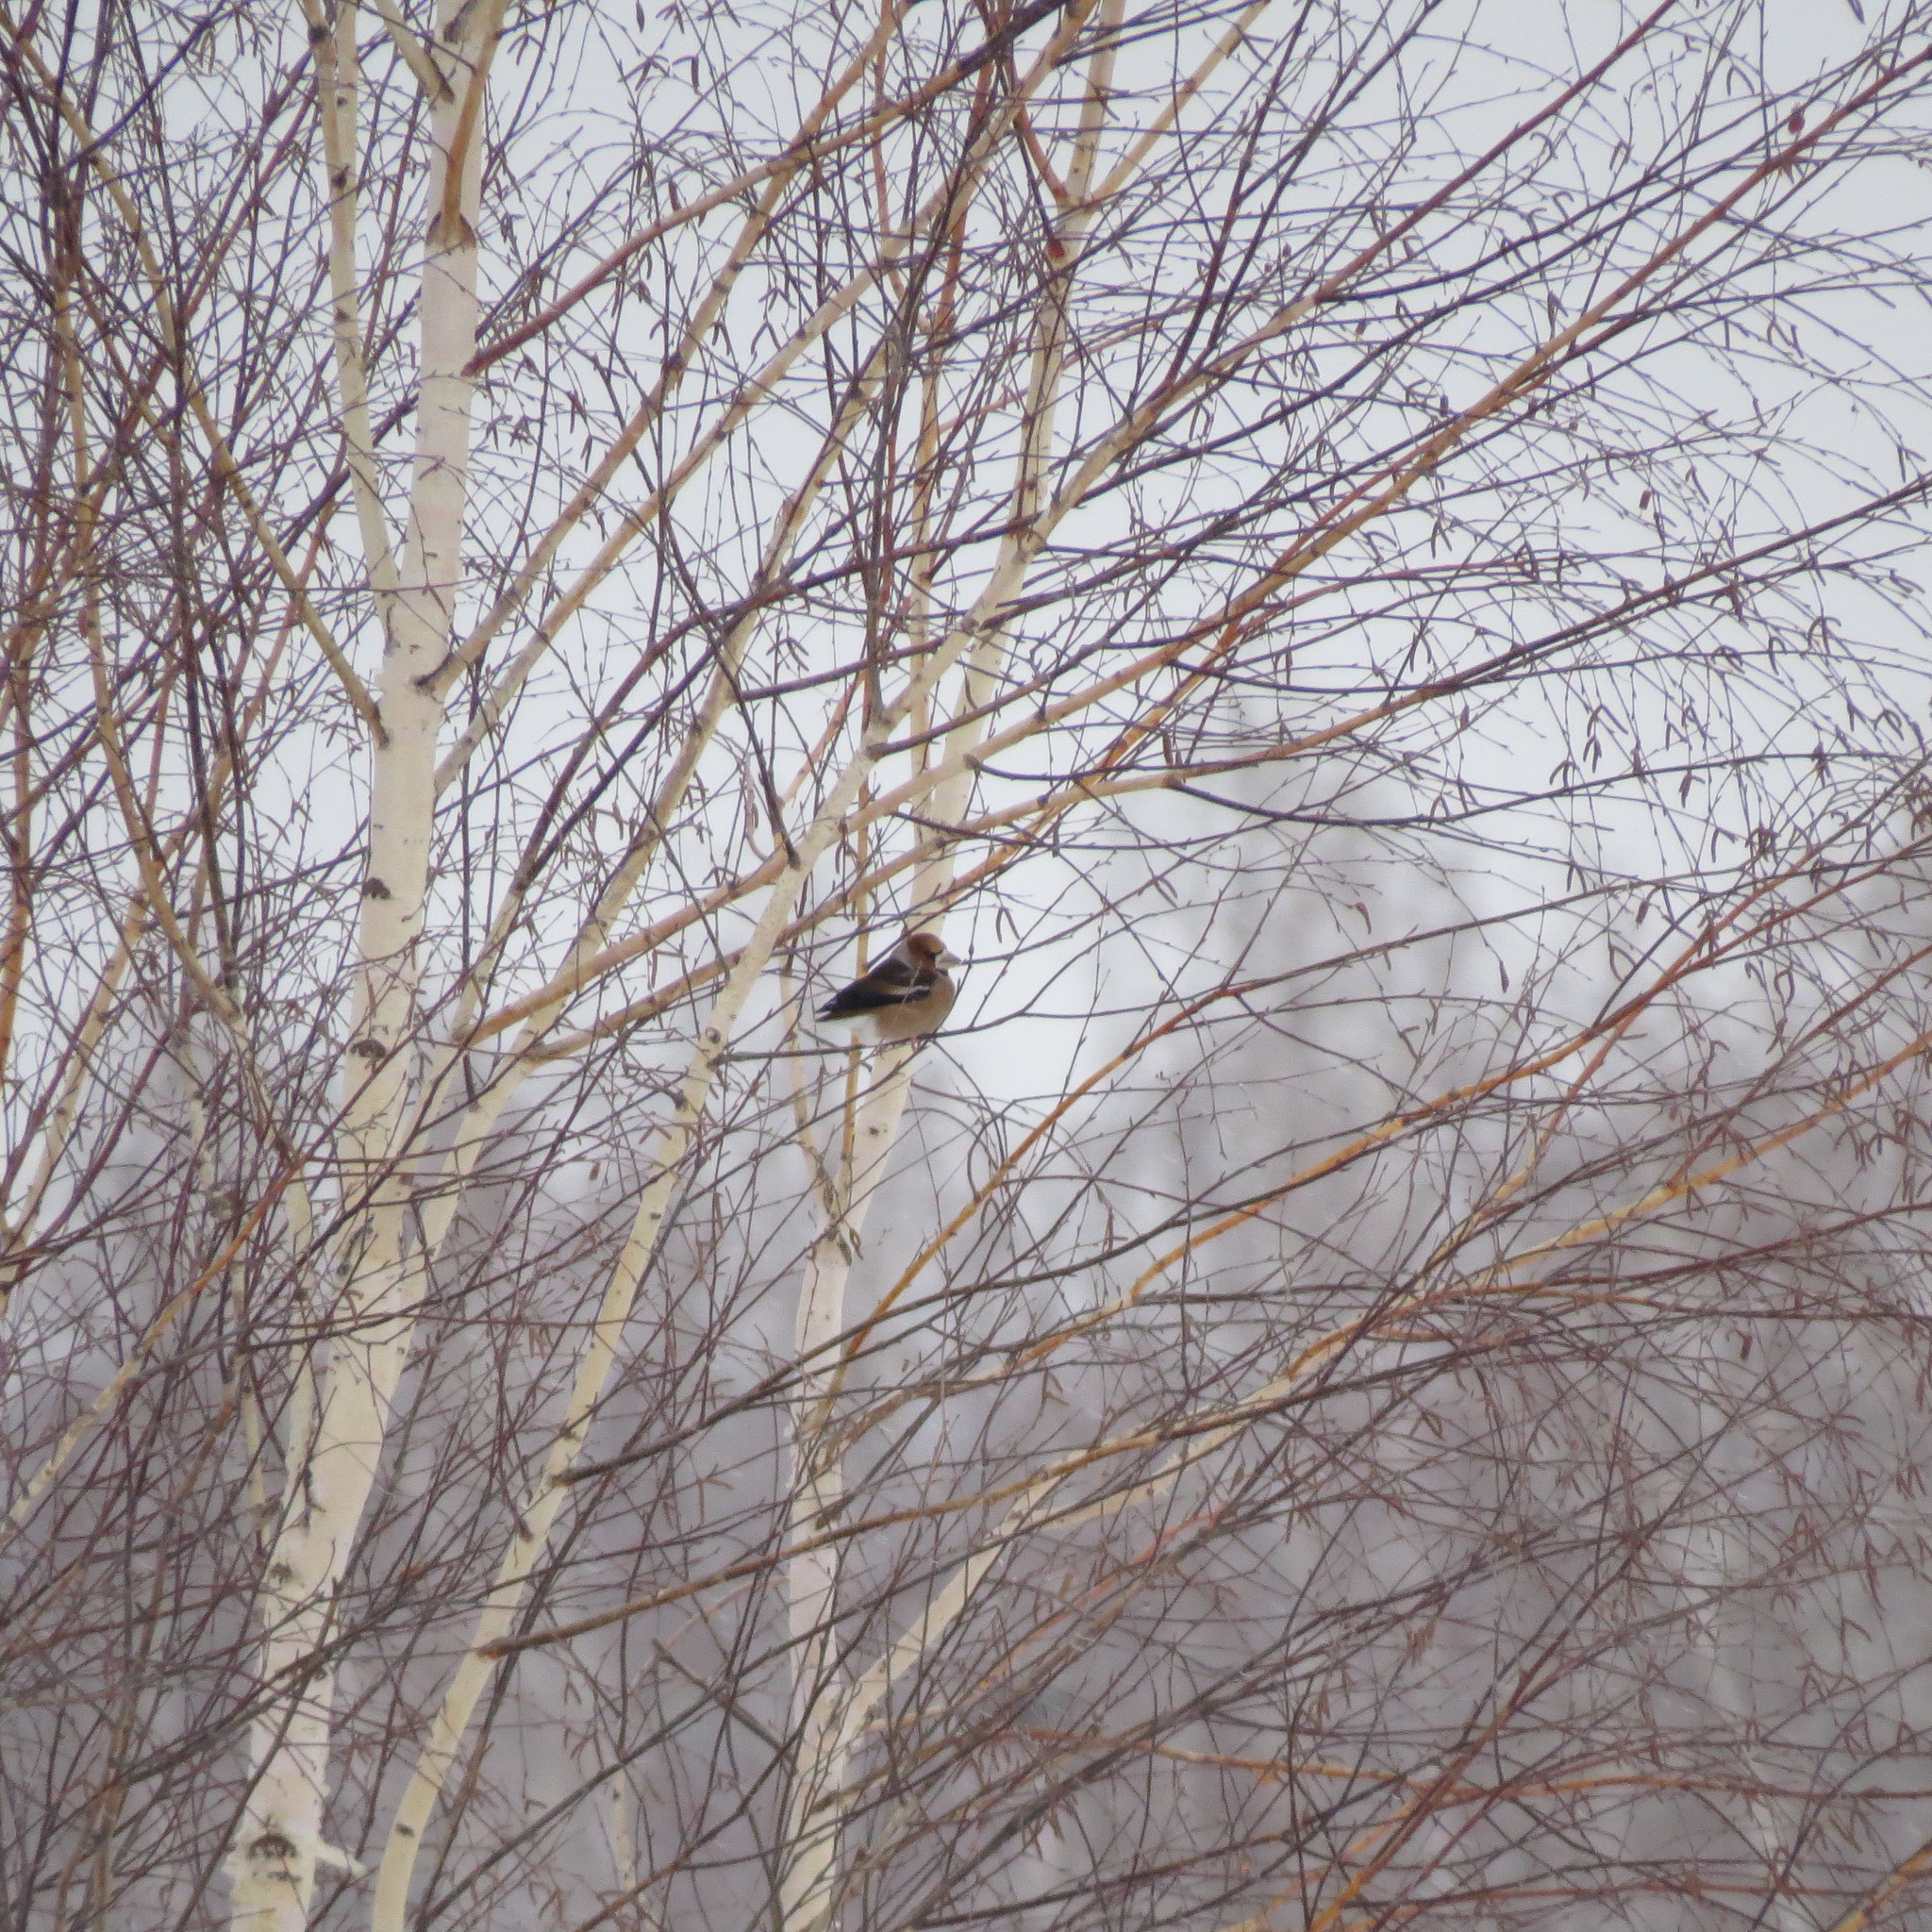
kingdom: Animalia
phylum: Chordata
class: Aves
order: Passeriformes
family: Fringillidae
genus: Coccothraustes
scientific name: Coccothraustes coccothraustes
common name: Hawfinch
